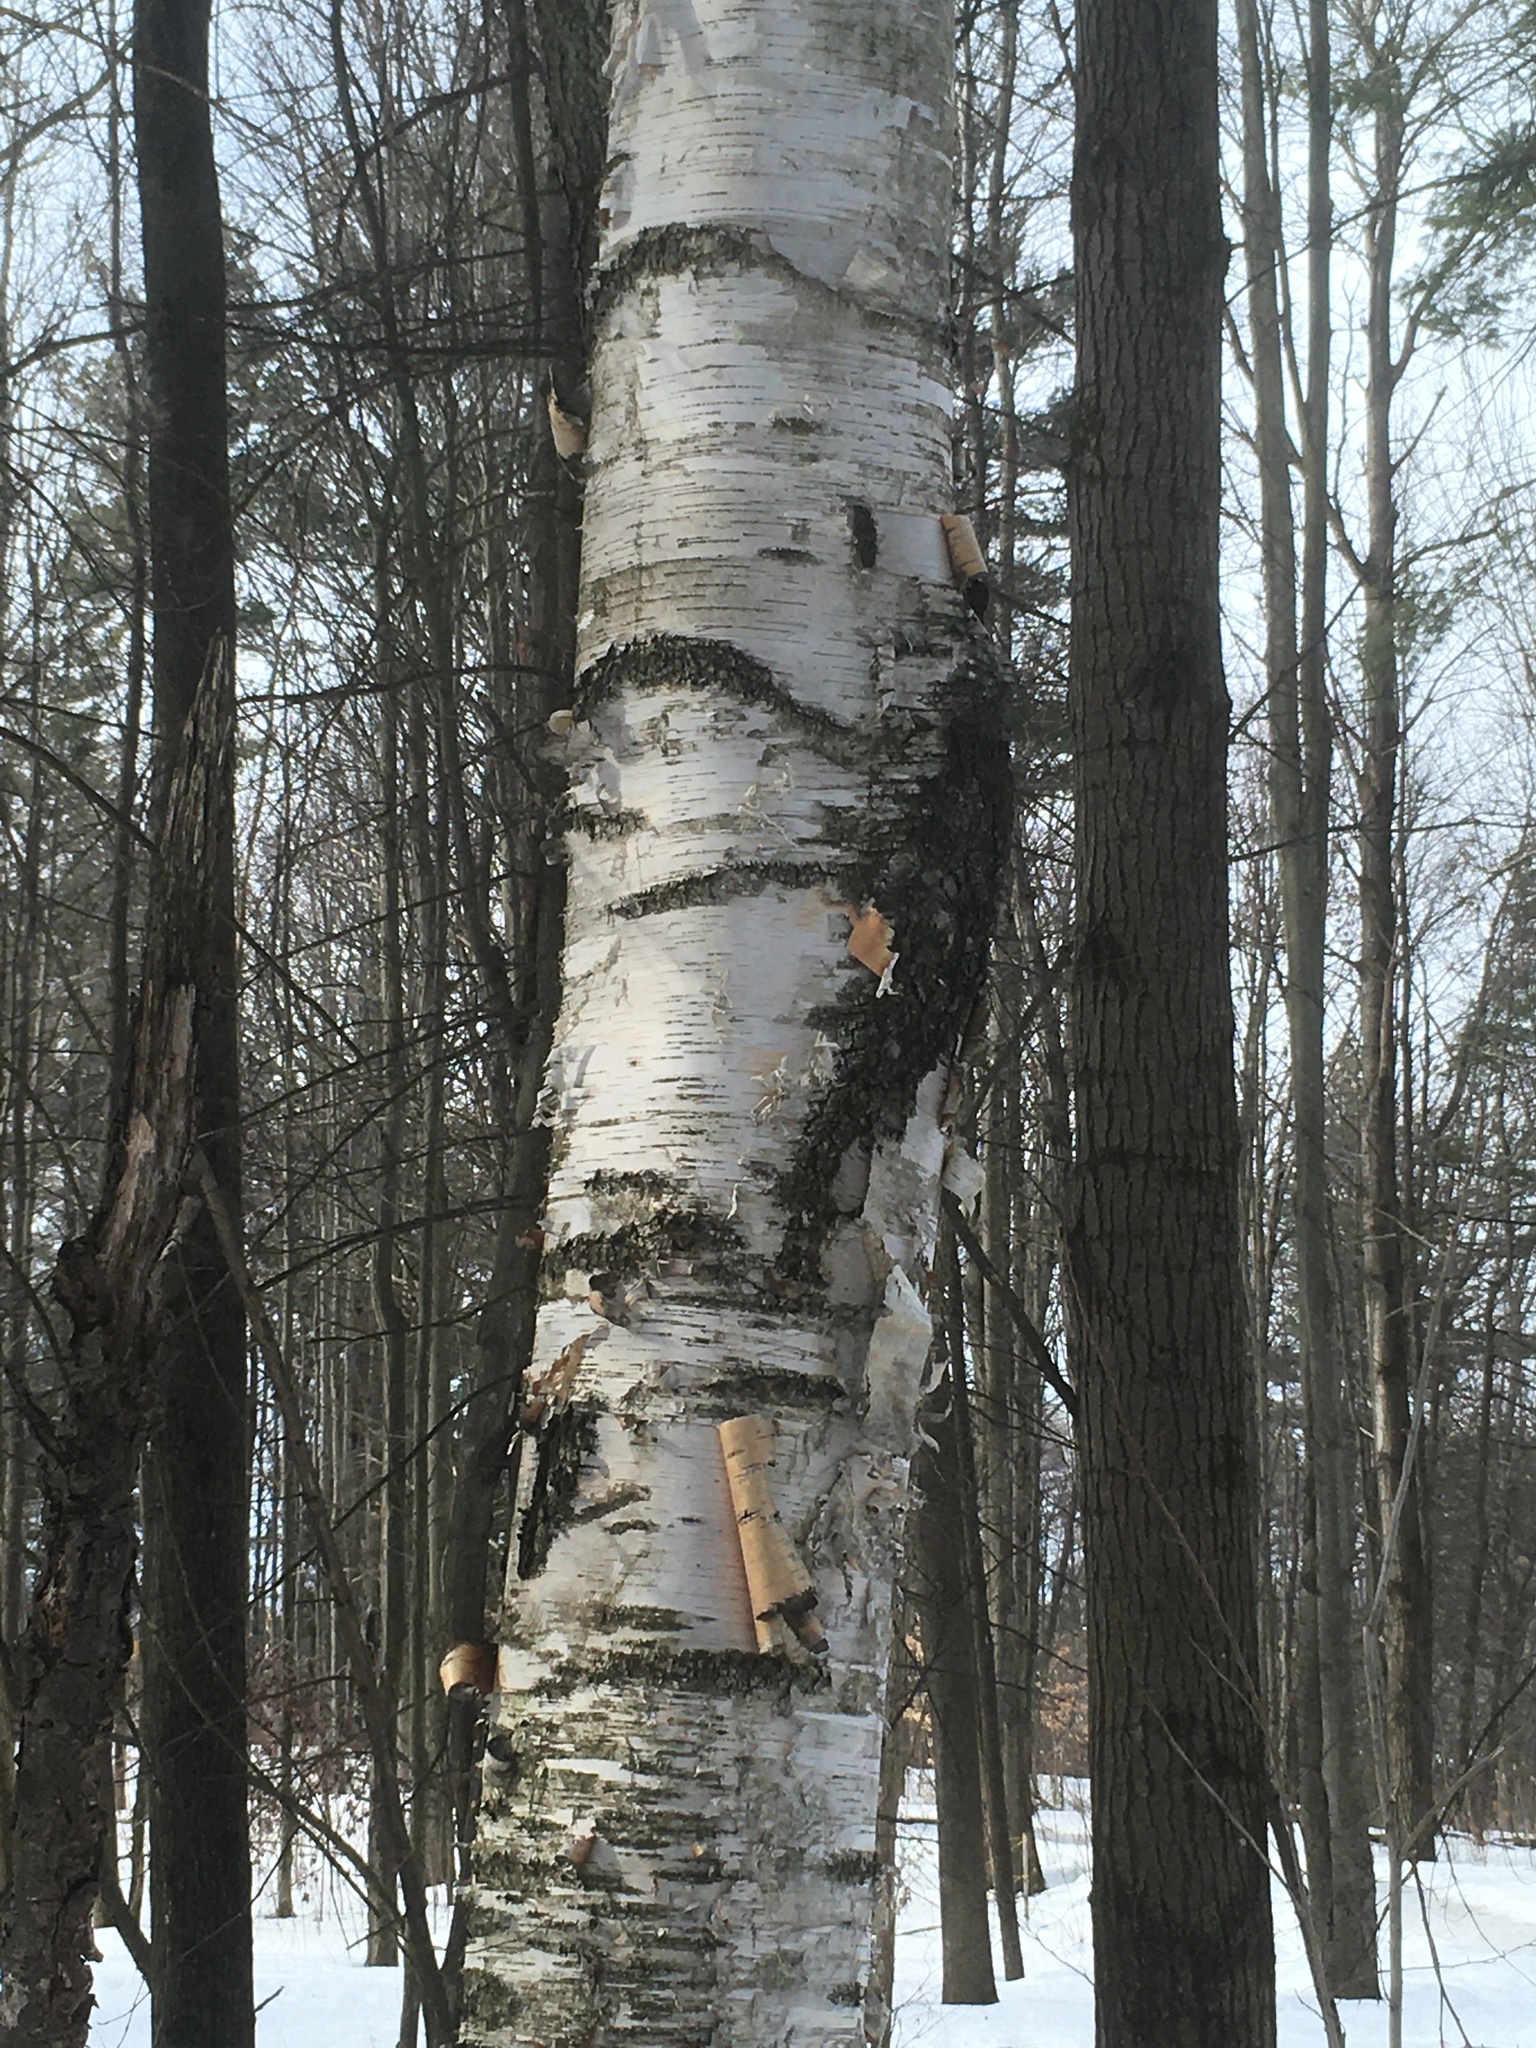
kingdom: Plantae
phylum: Tracheophyta
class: Magnoliopsida
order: Fagales
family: Betulaceae
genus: Betula
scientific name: Betula papyrifera
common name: Paper birch
